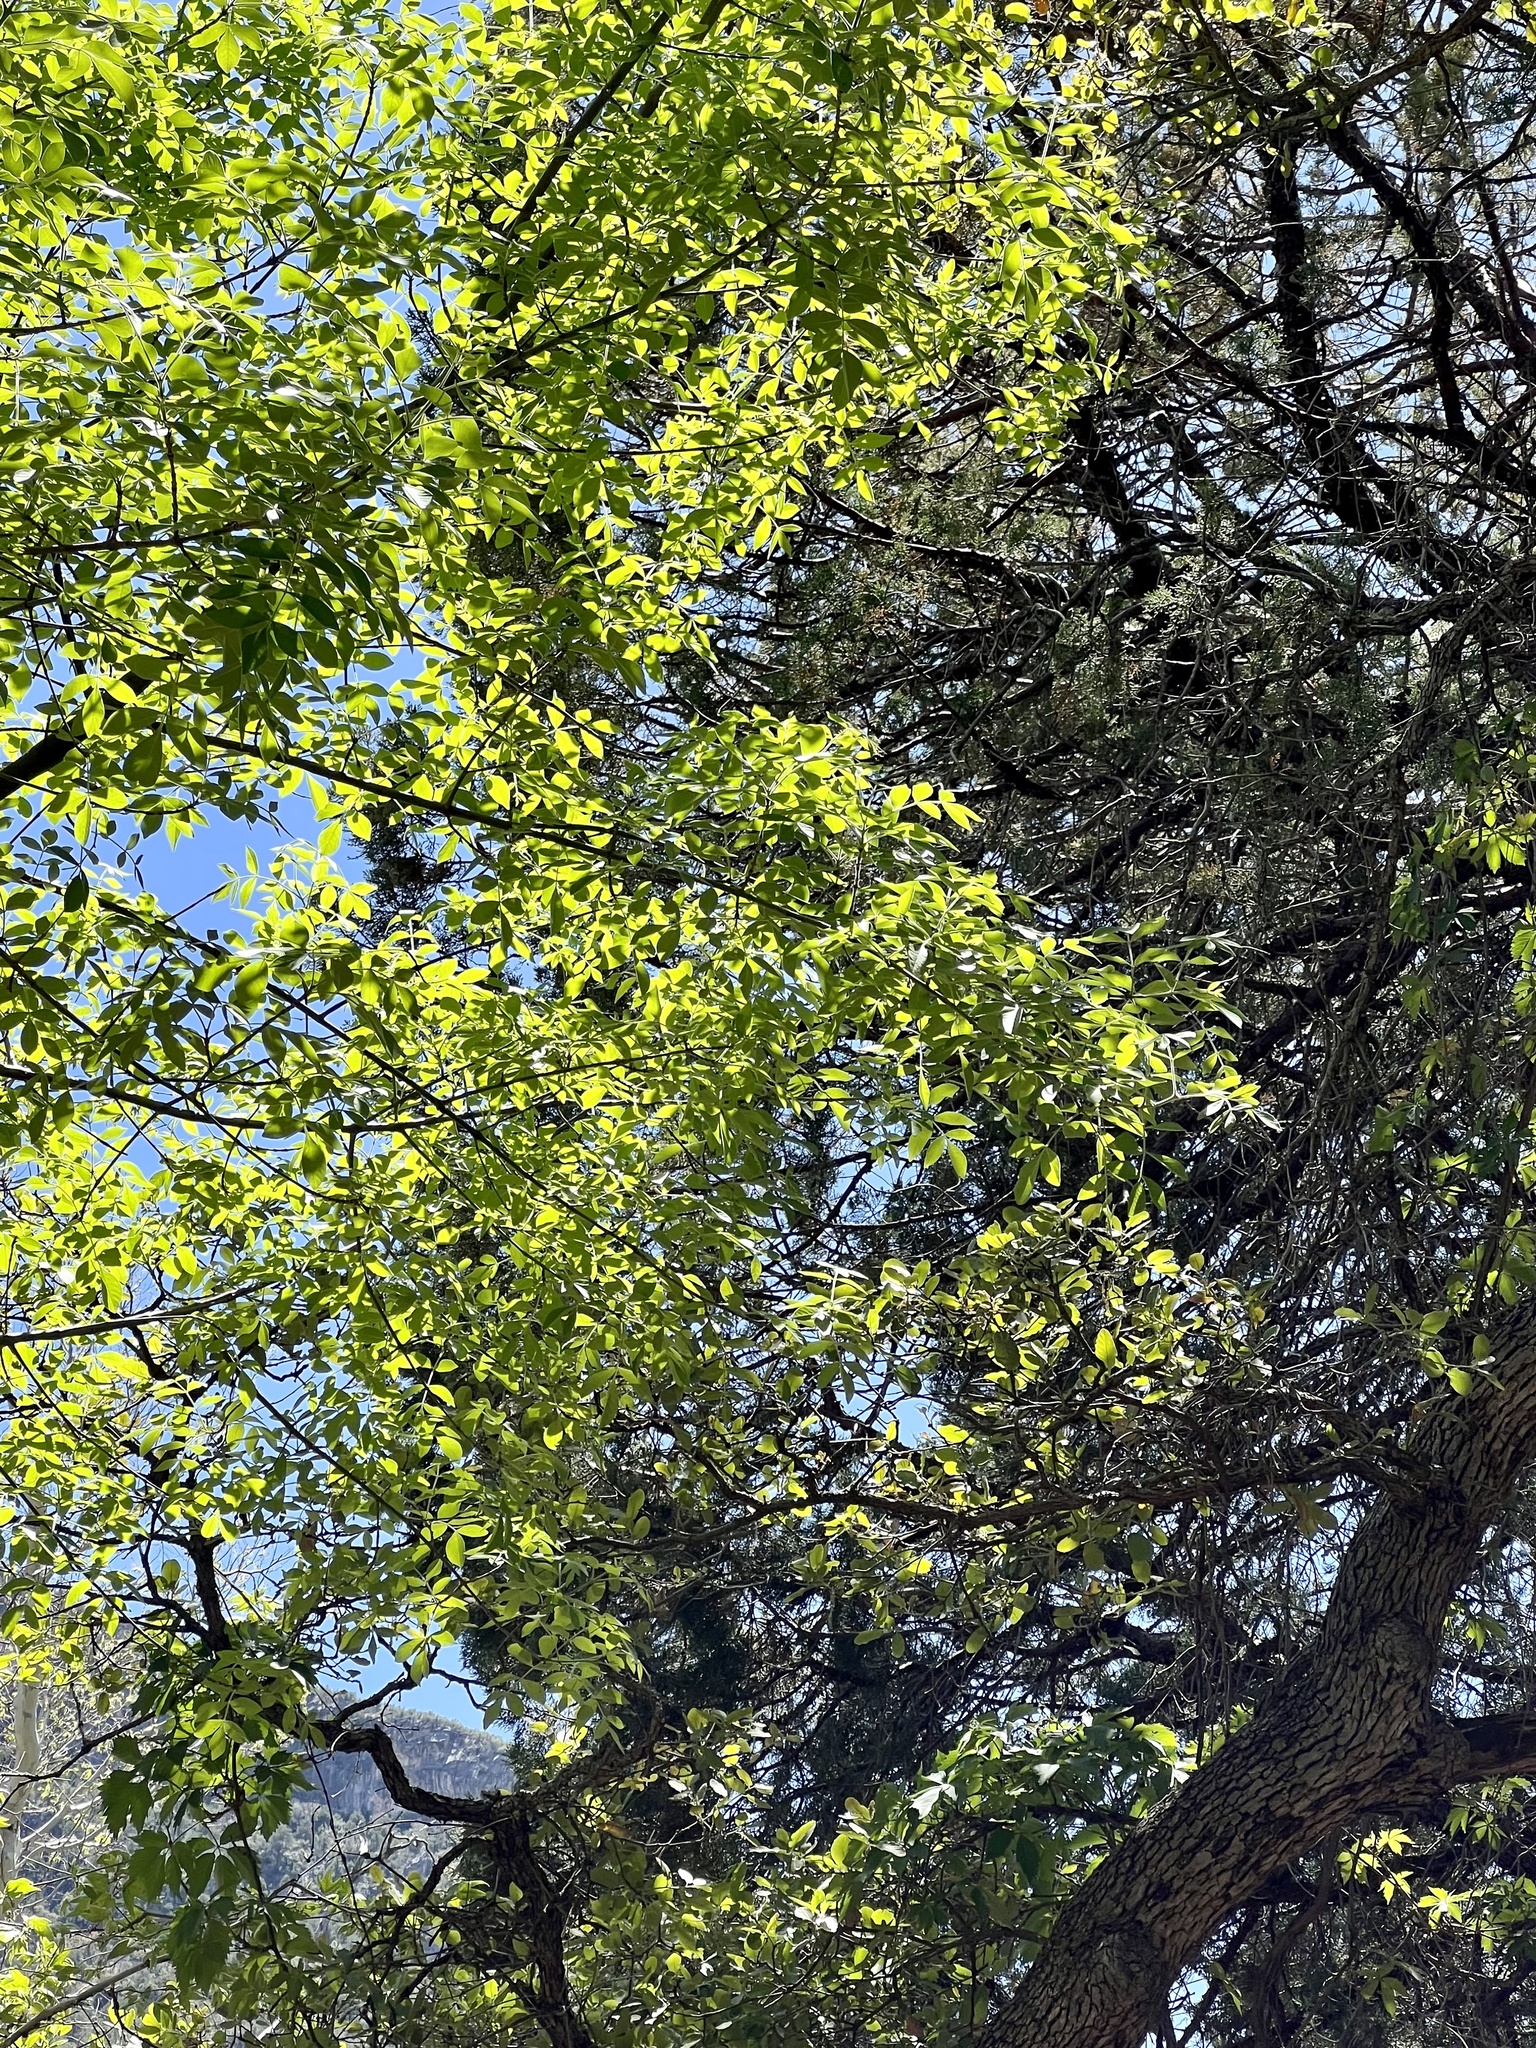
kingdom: Plantae
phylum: Tracheophyta
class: Magnoliopsida
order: Lamiales
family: Oleaceae
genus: Fraxinus
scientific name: Fraxinus velutina
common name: Arizon ash
